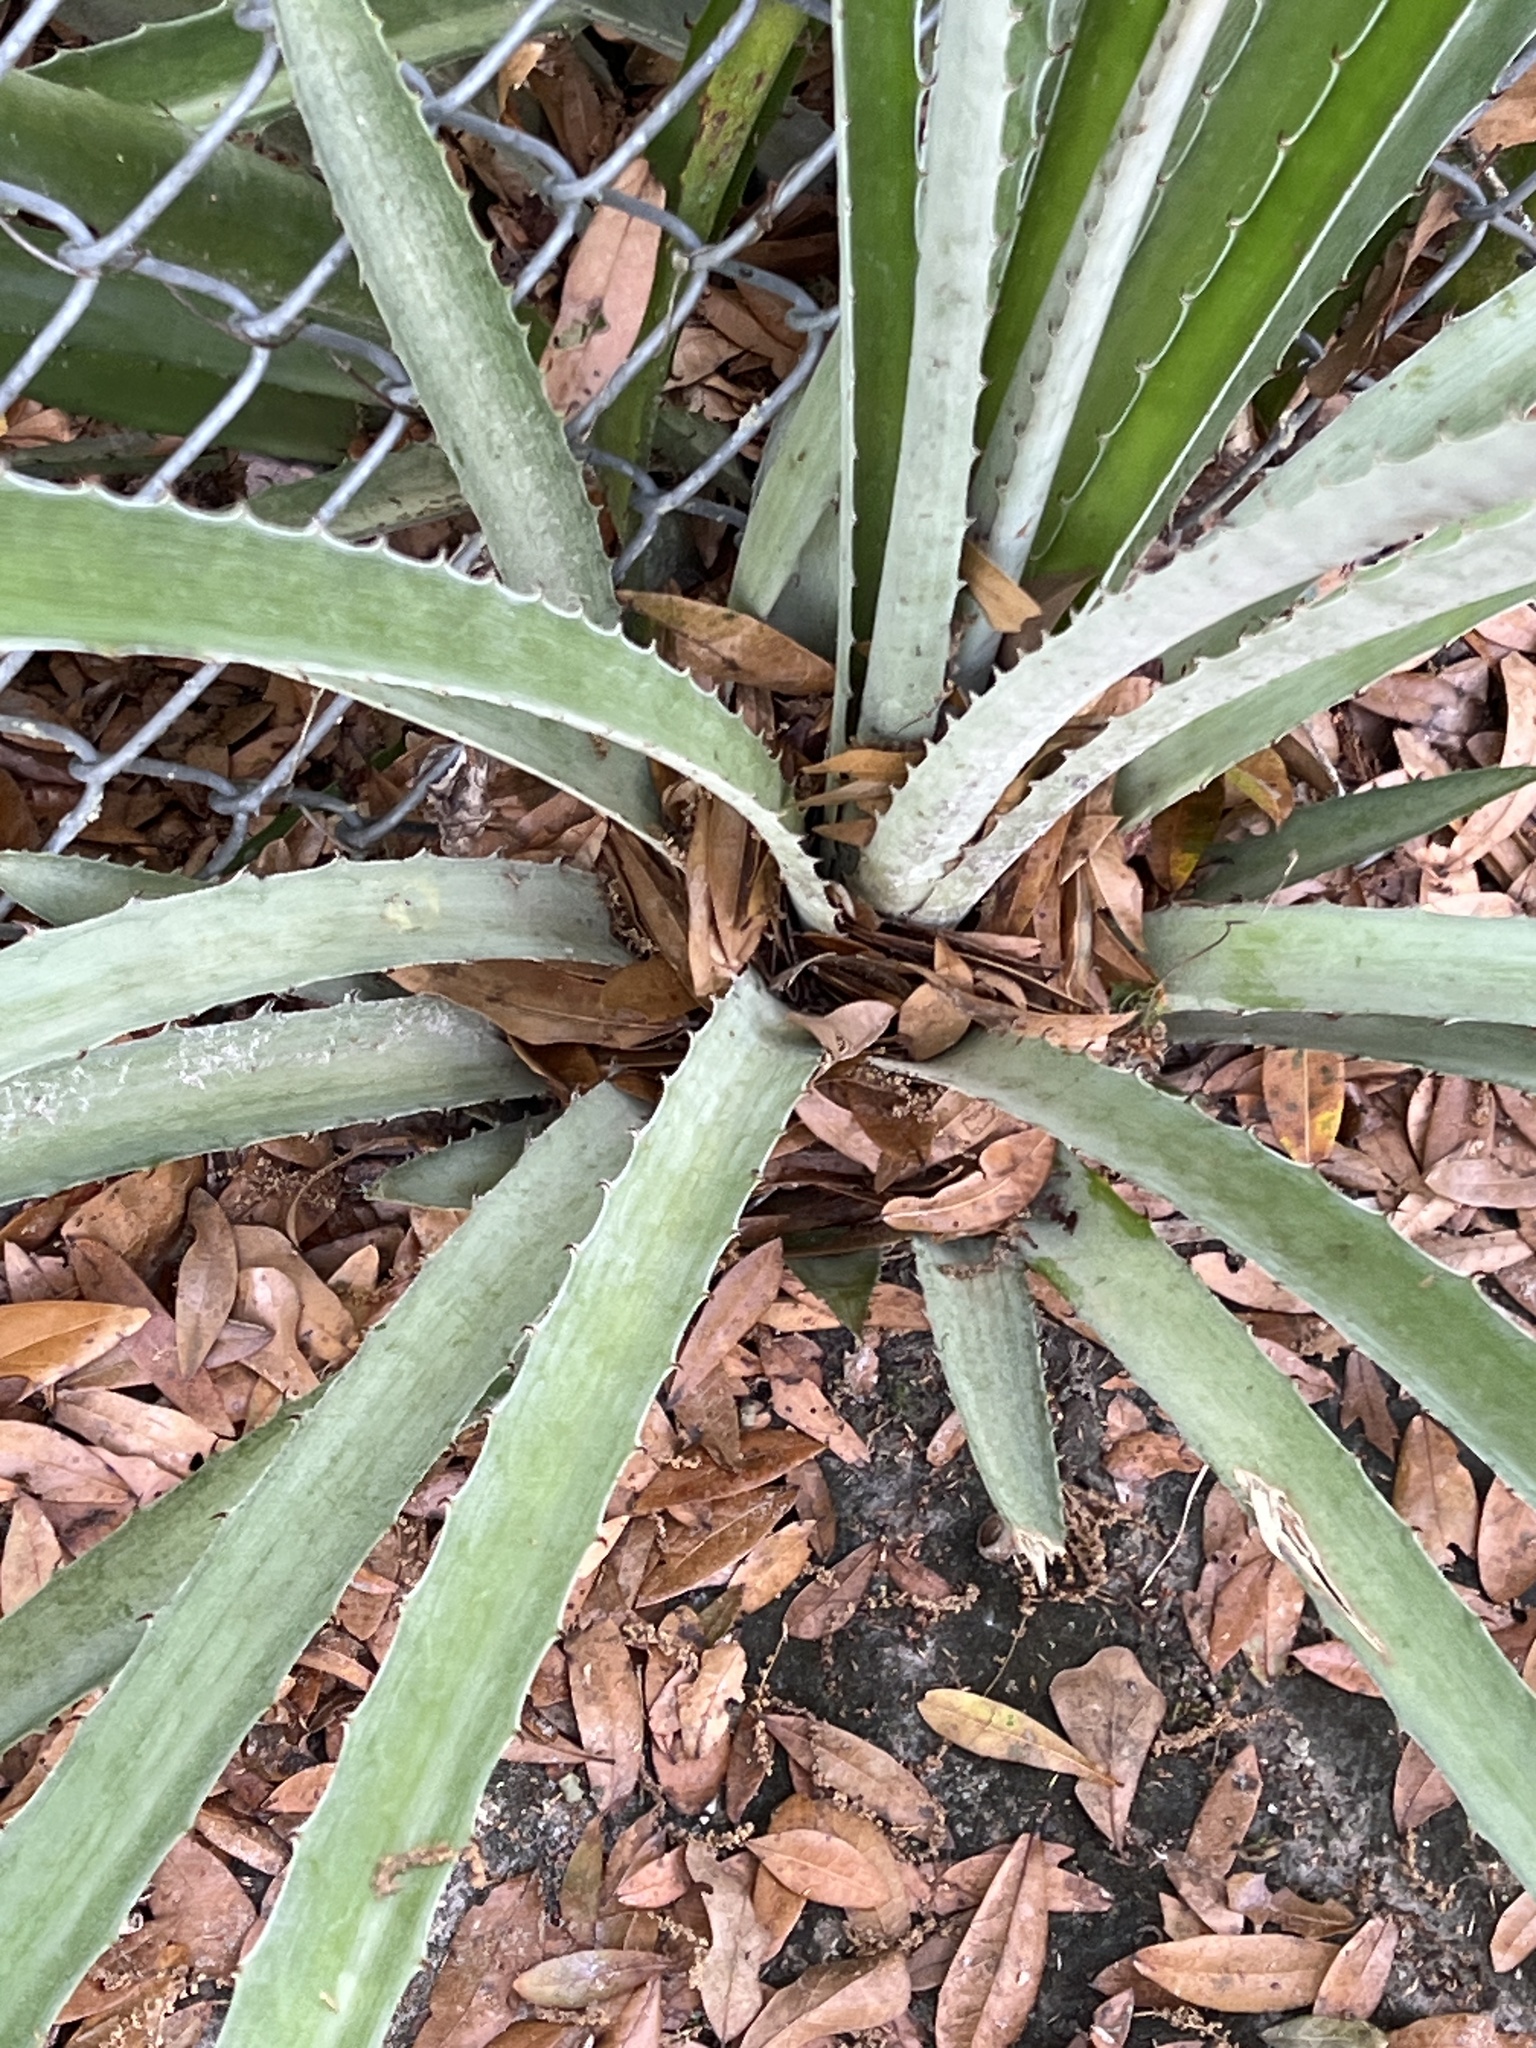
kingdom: Plantae
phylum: Tracheophyta
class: Liliopsida
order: Poales
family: Bromeliaceae
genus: Bromelia
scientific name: Bromelia pinguin
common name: Pinguin
